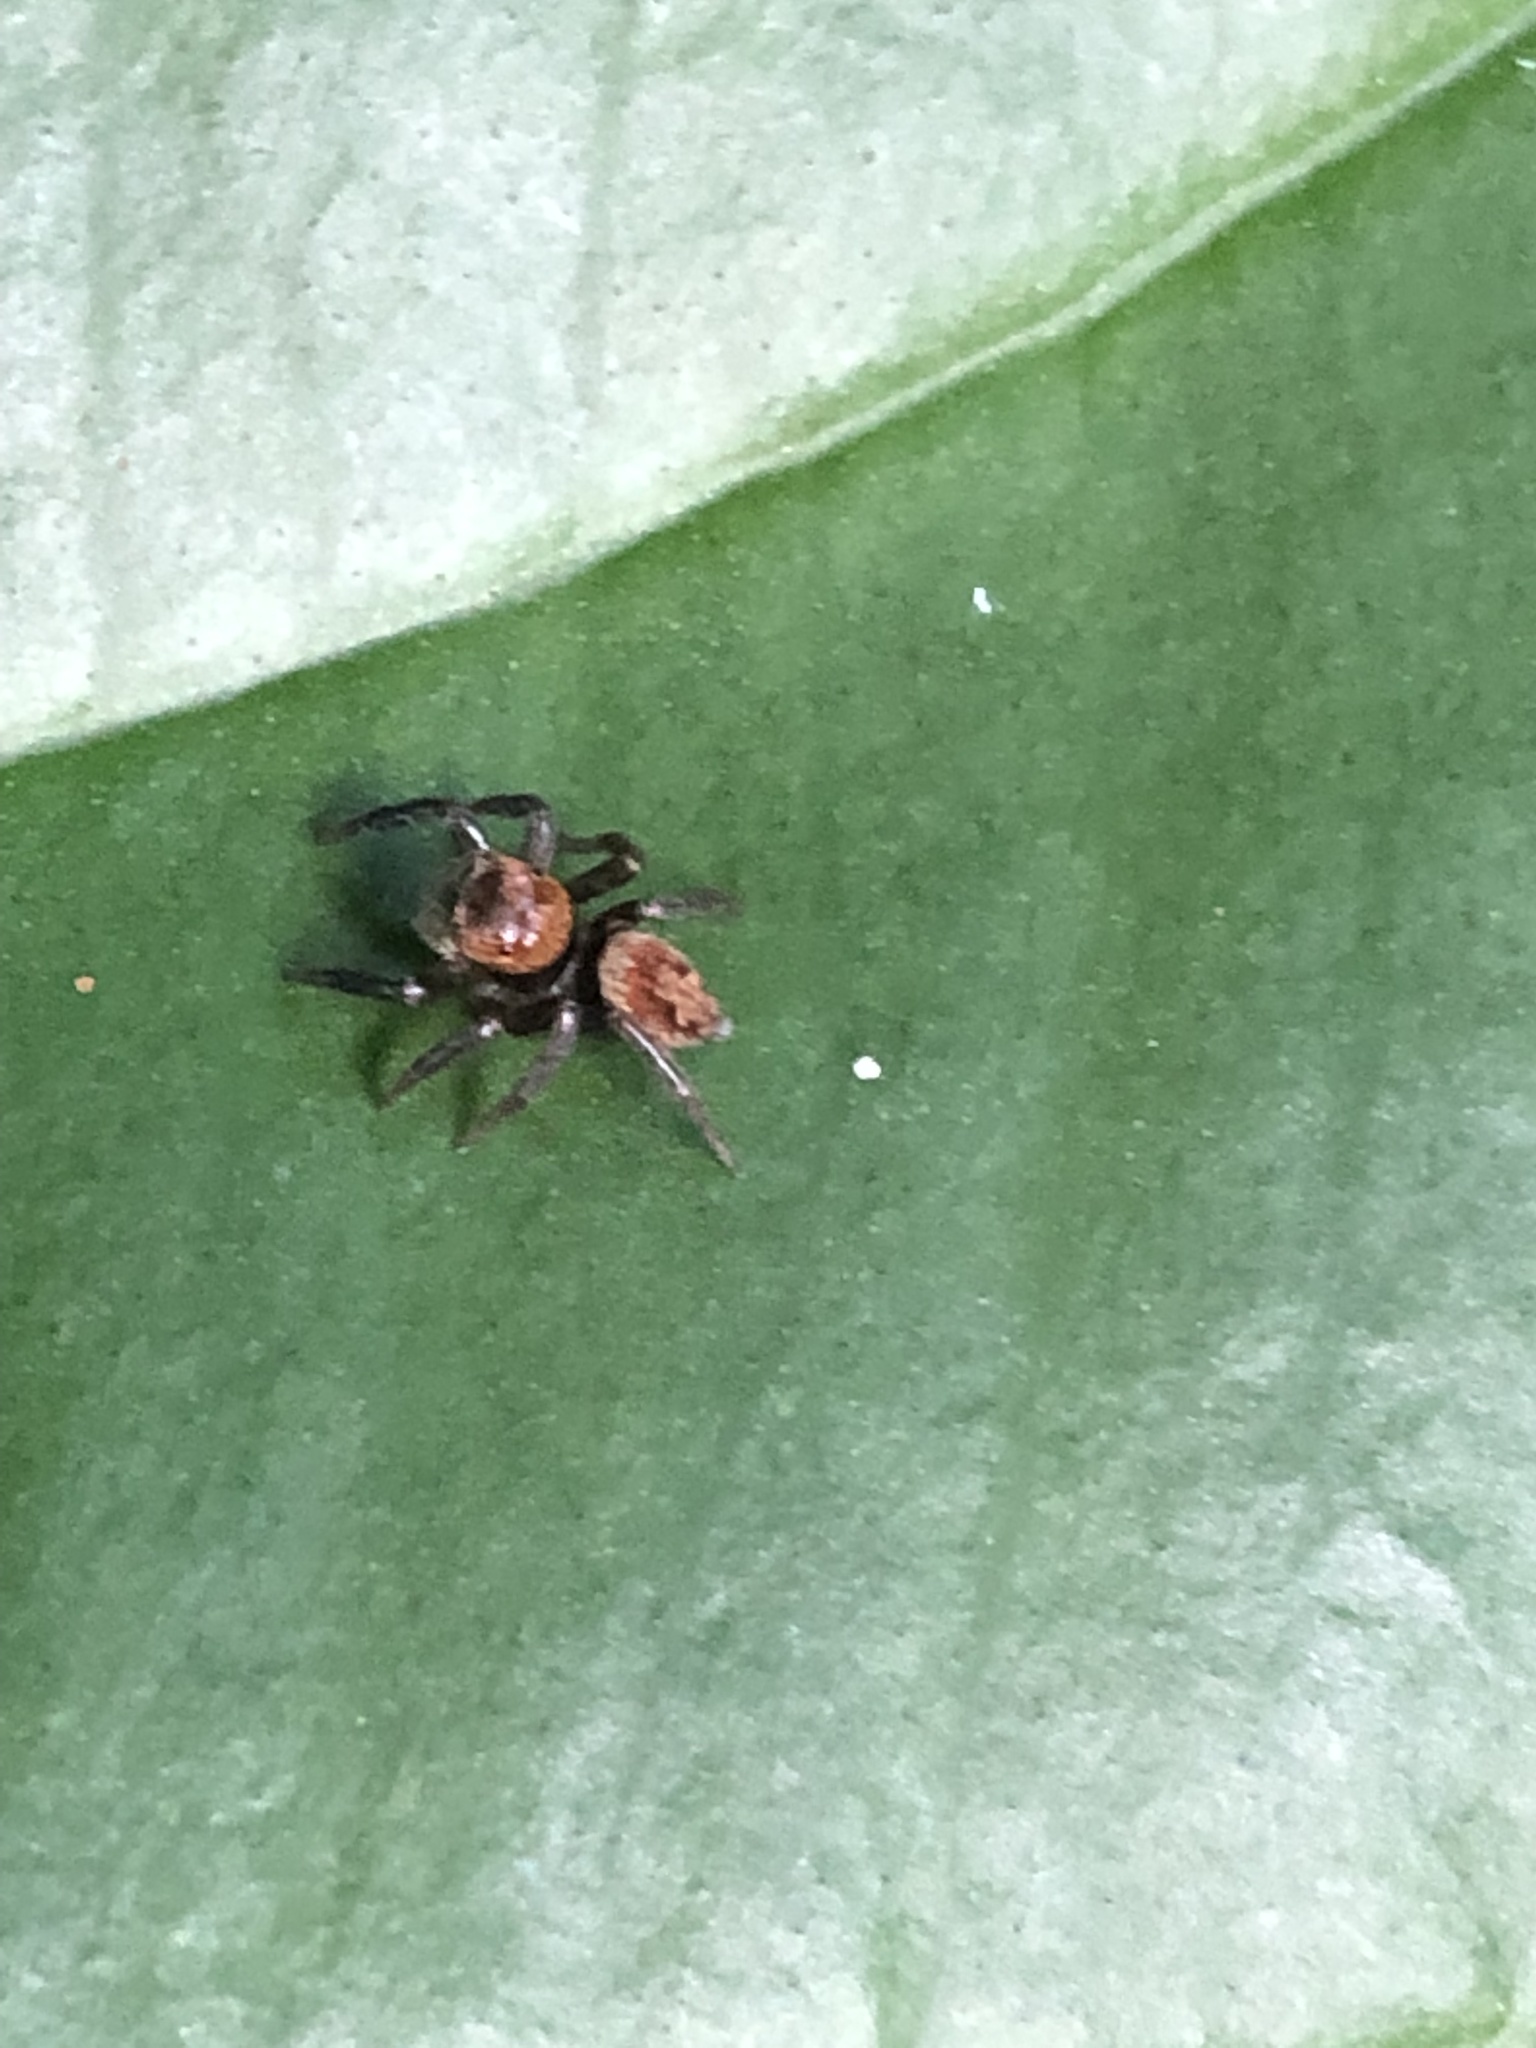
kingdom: Animalia
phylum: Arthropoda
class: Arachnida
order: Araneae
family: Salticidae
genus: Hasarius
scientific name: Hasarius adansoni
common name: Jumping spider
